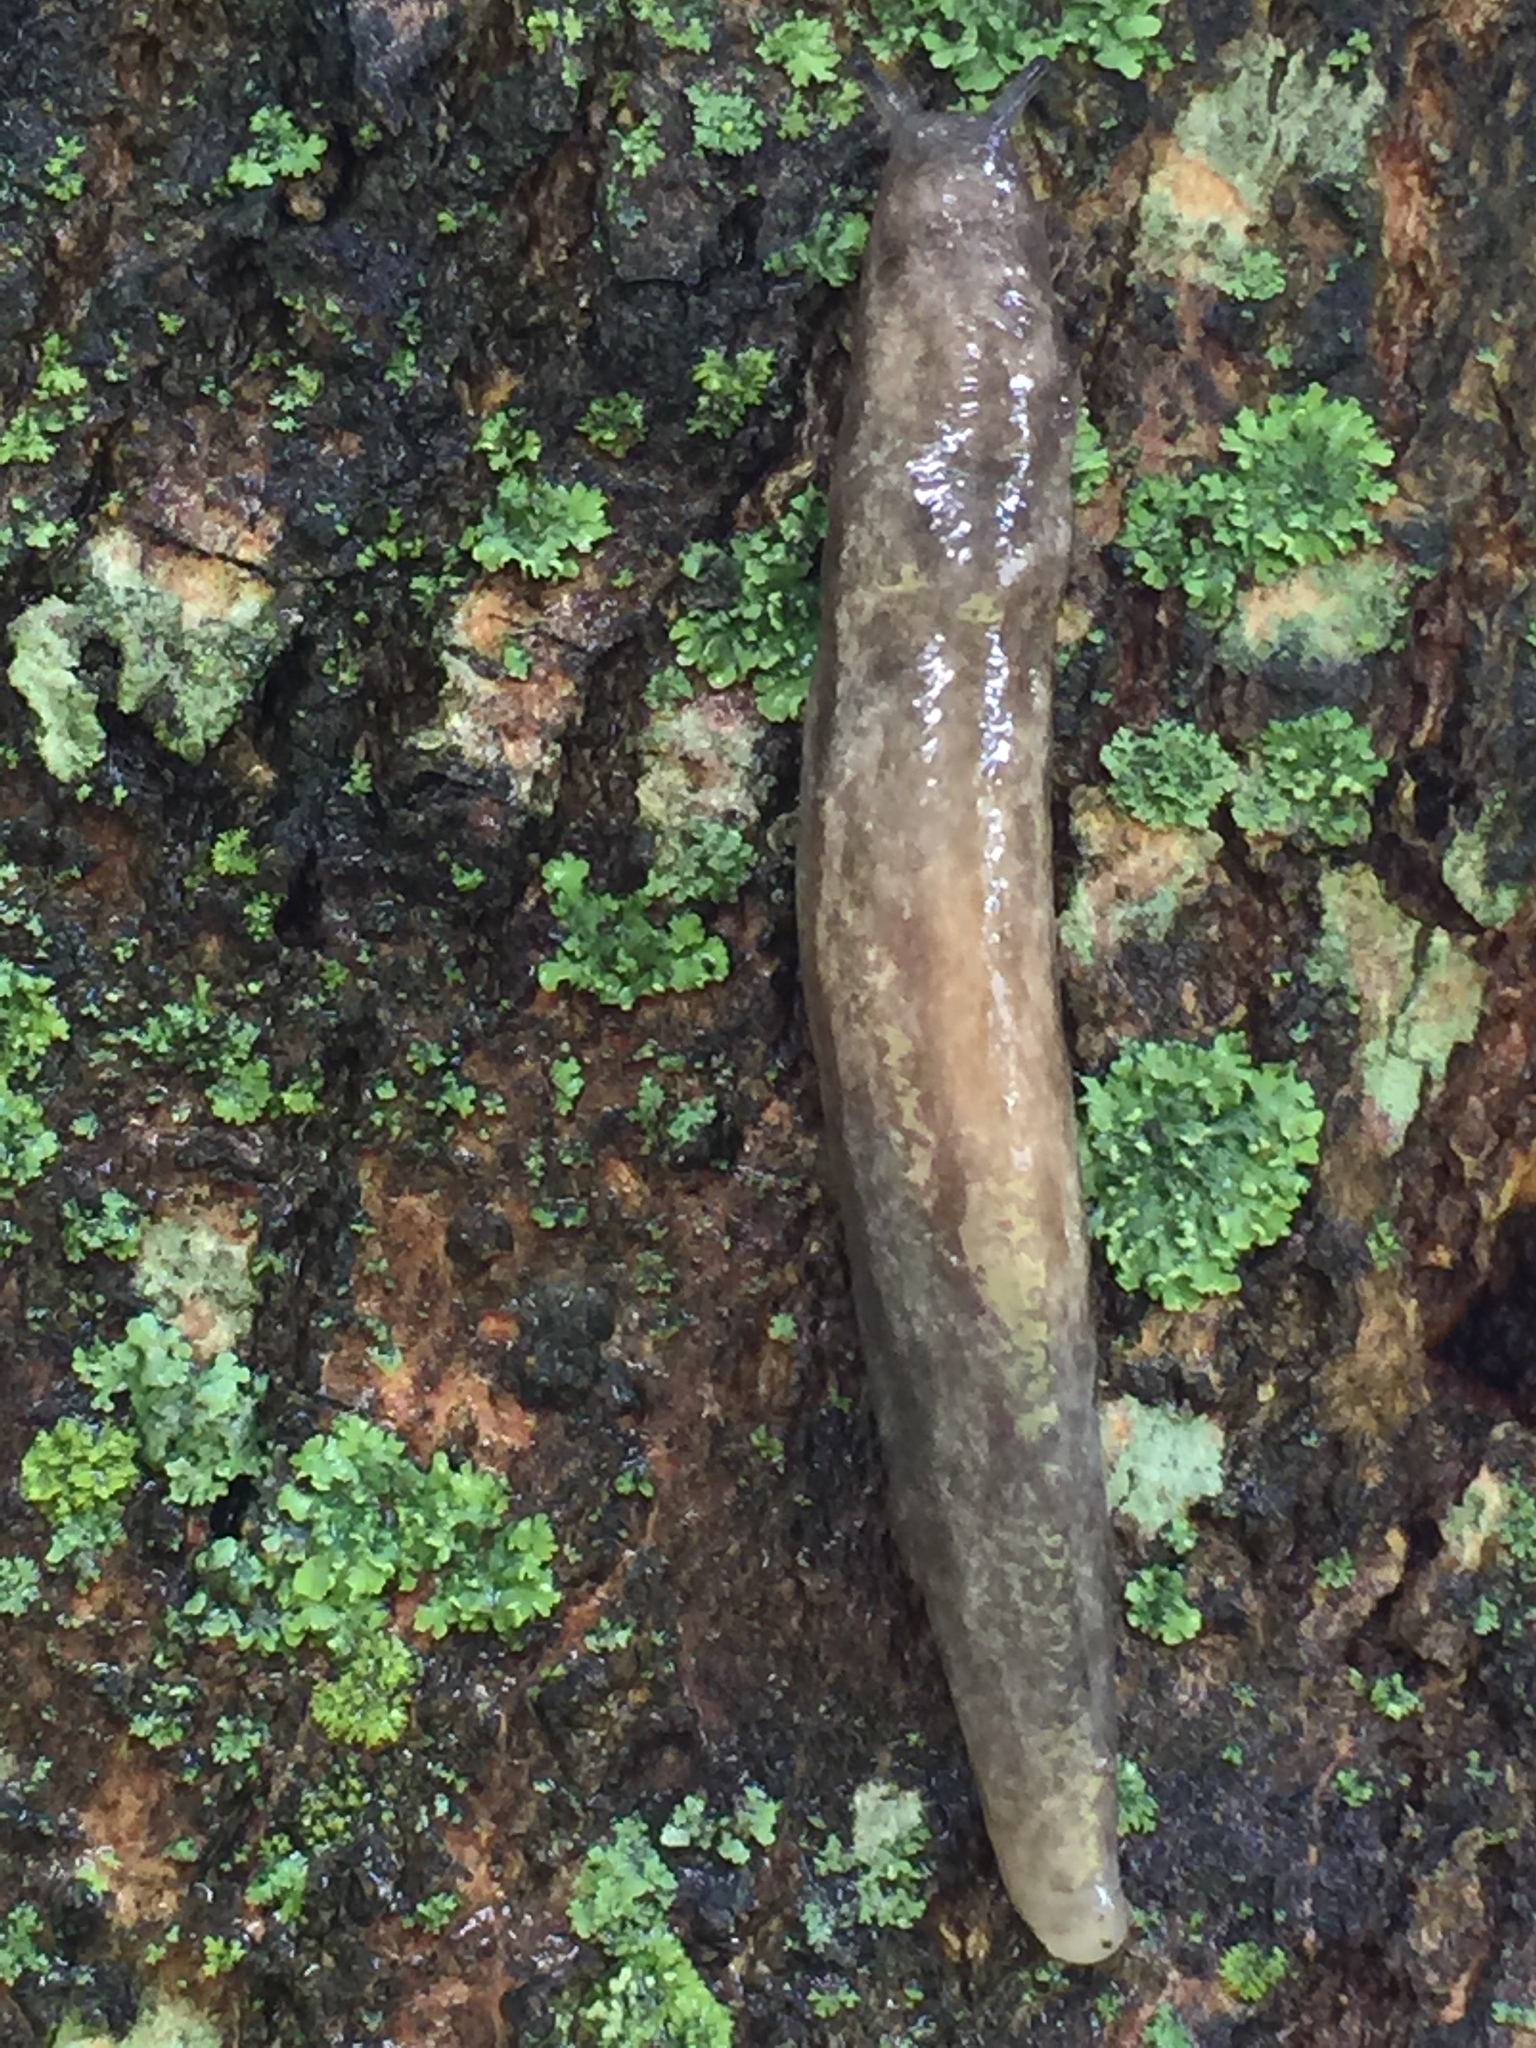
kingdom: Animalia
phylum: Mollusca
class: Gastropoda
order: Stylommatophora
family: Philomycidae
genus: Megapallifera
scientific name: Megapallifera mutabilis
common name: Changeable mantleslug
